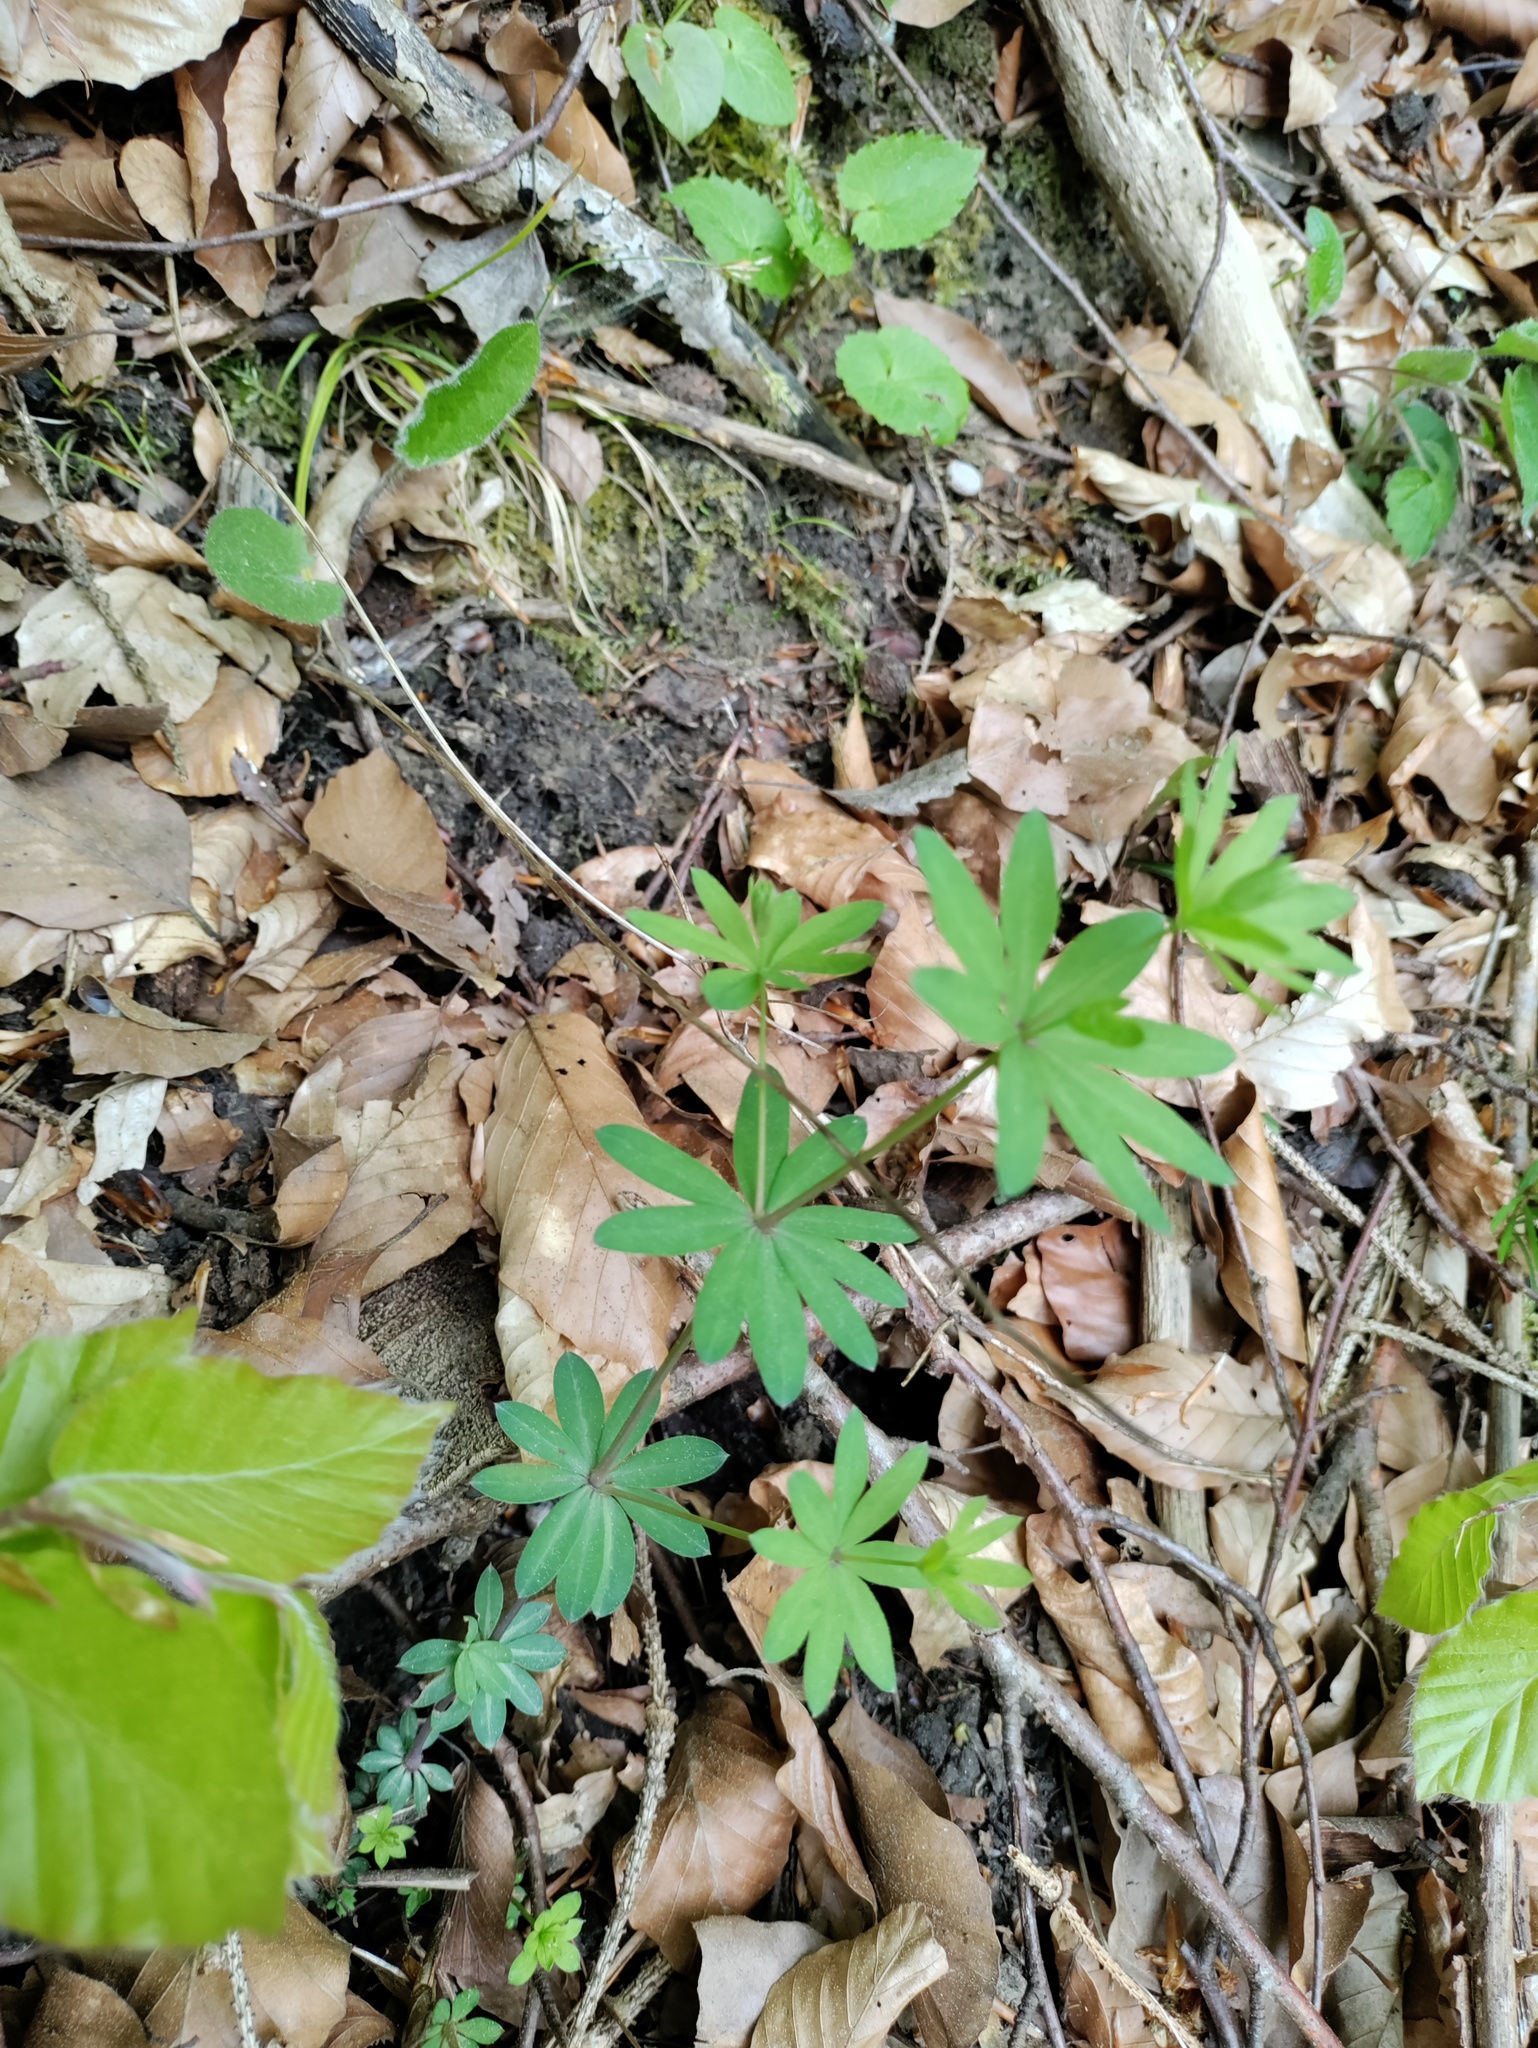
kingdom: Plantae
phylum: Tracheophyta
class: Magnoliopsida
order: Gentianales
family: Rubiaceae
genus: Galium
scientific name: Galium sylvaticum
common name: Wood bedstraw
